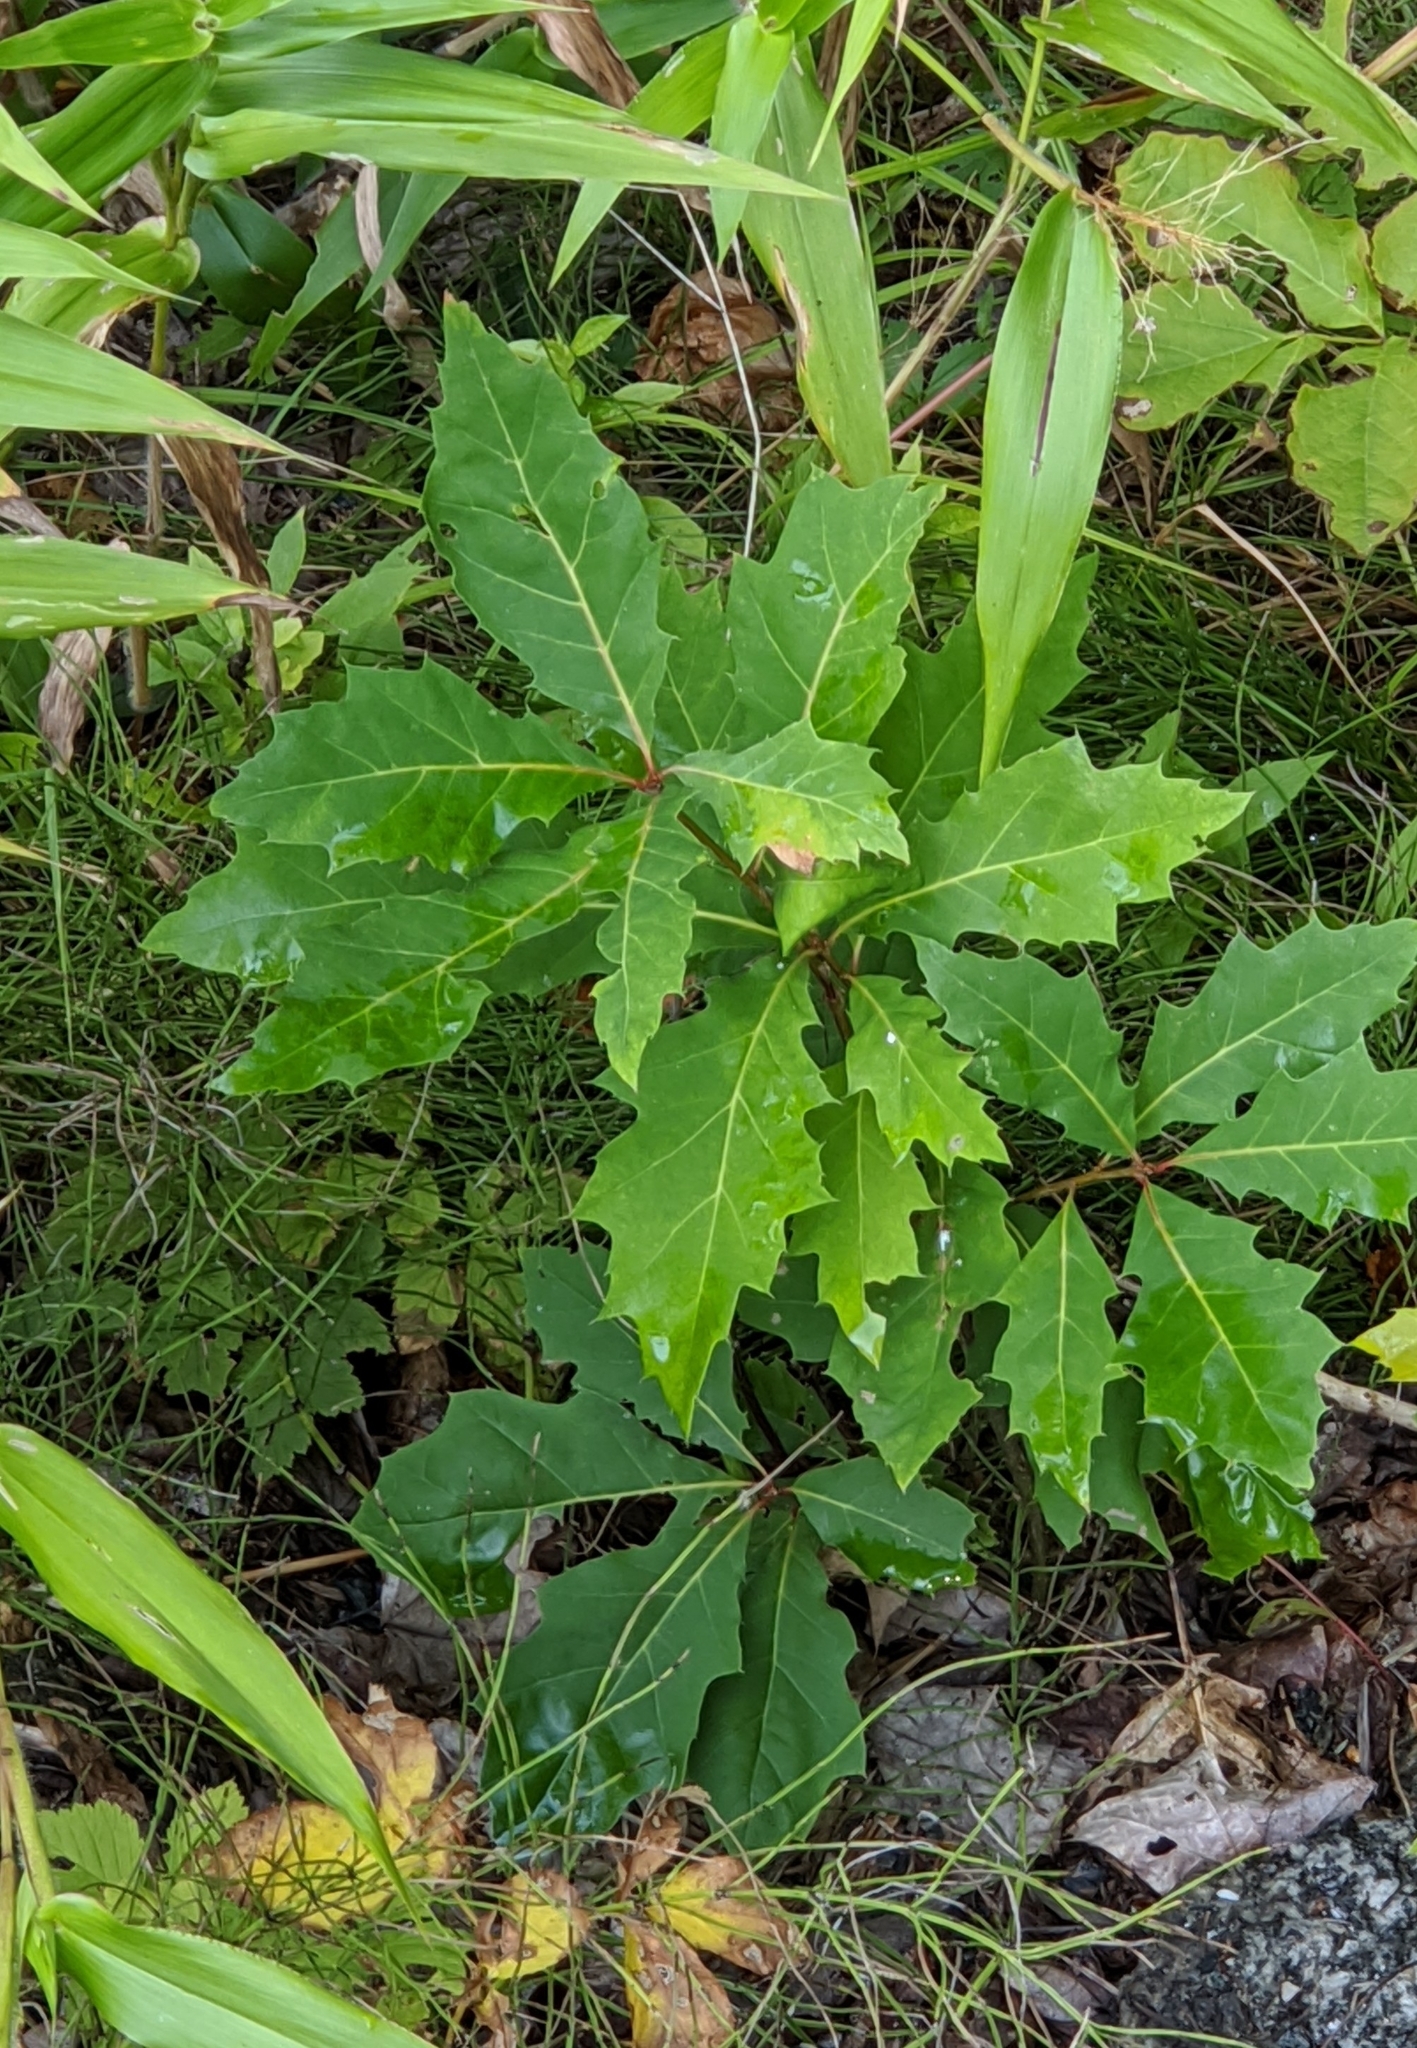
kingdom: Plantae
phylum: Tracheophyta
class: Magnoliopsida
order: Fagales
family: Fagaceae
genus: Quercus
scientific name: Quercus rubra
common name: Red oak
